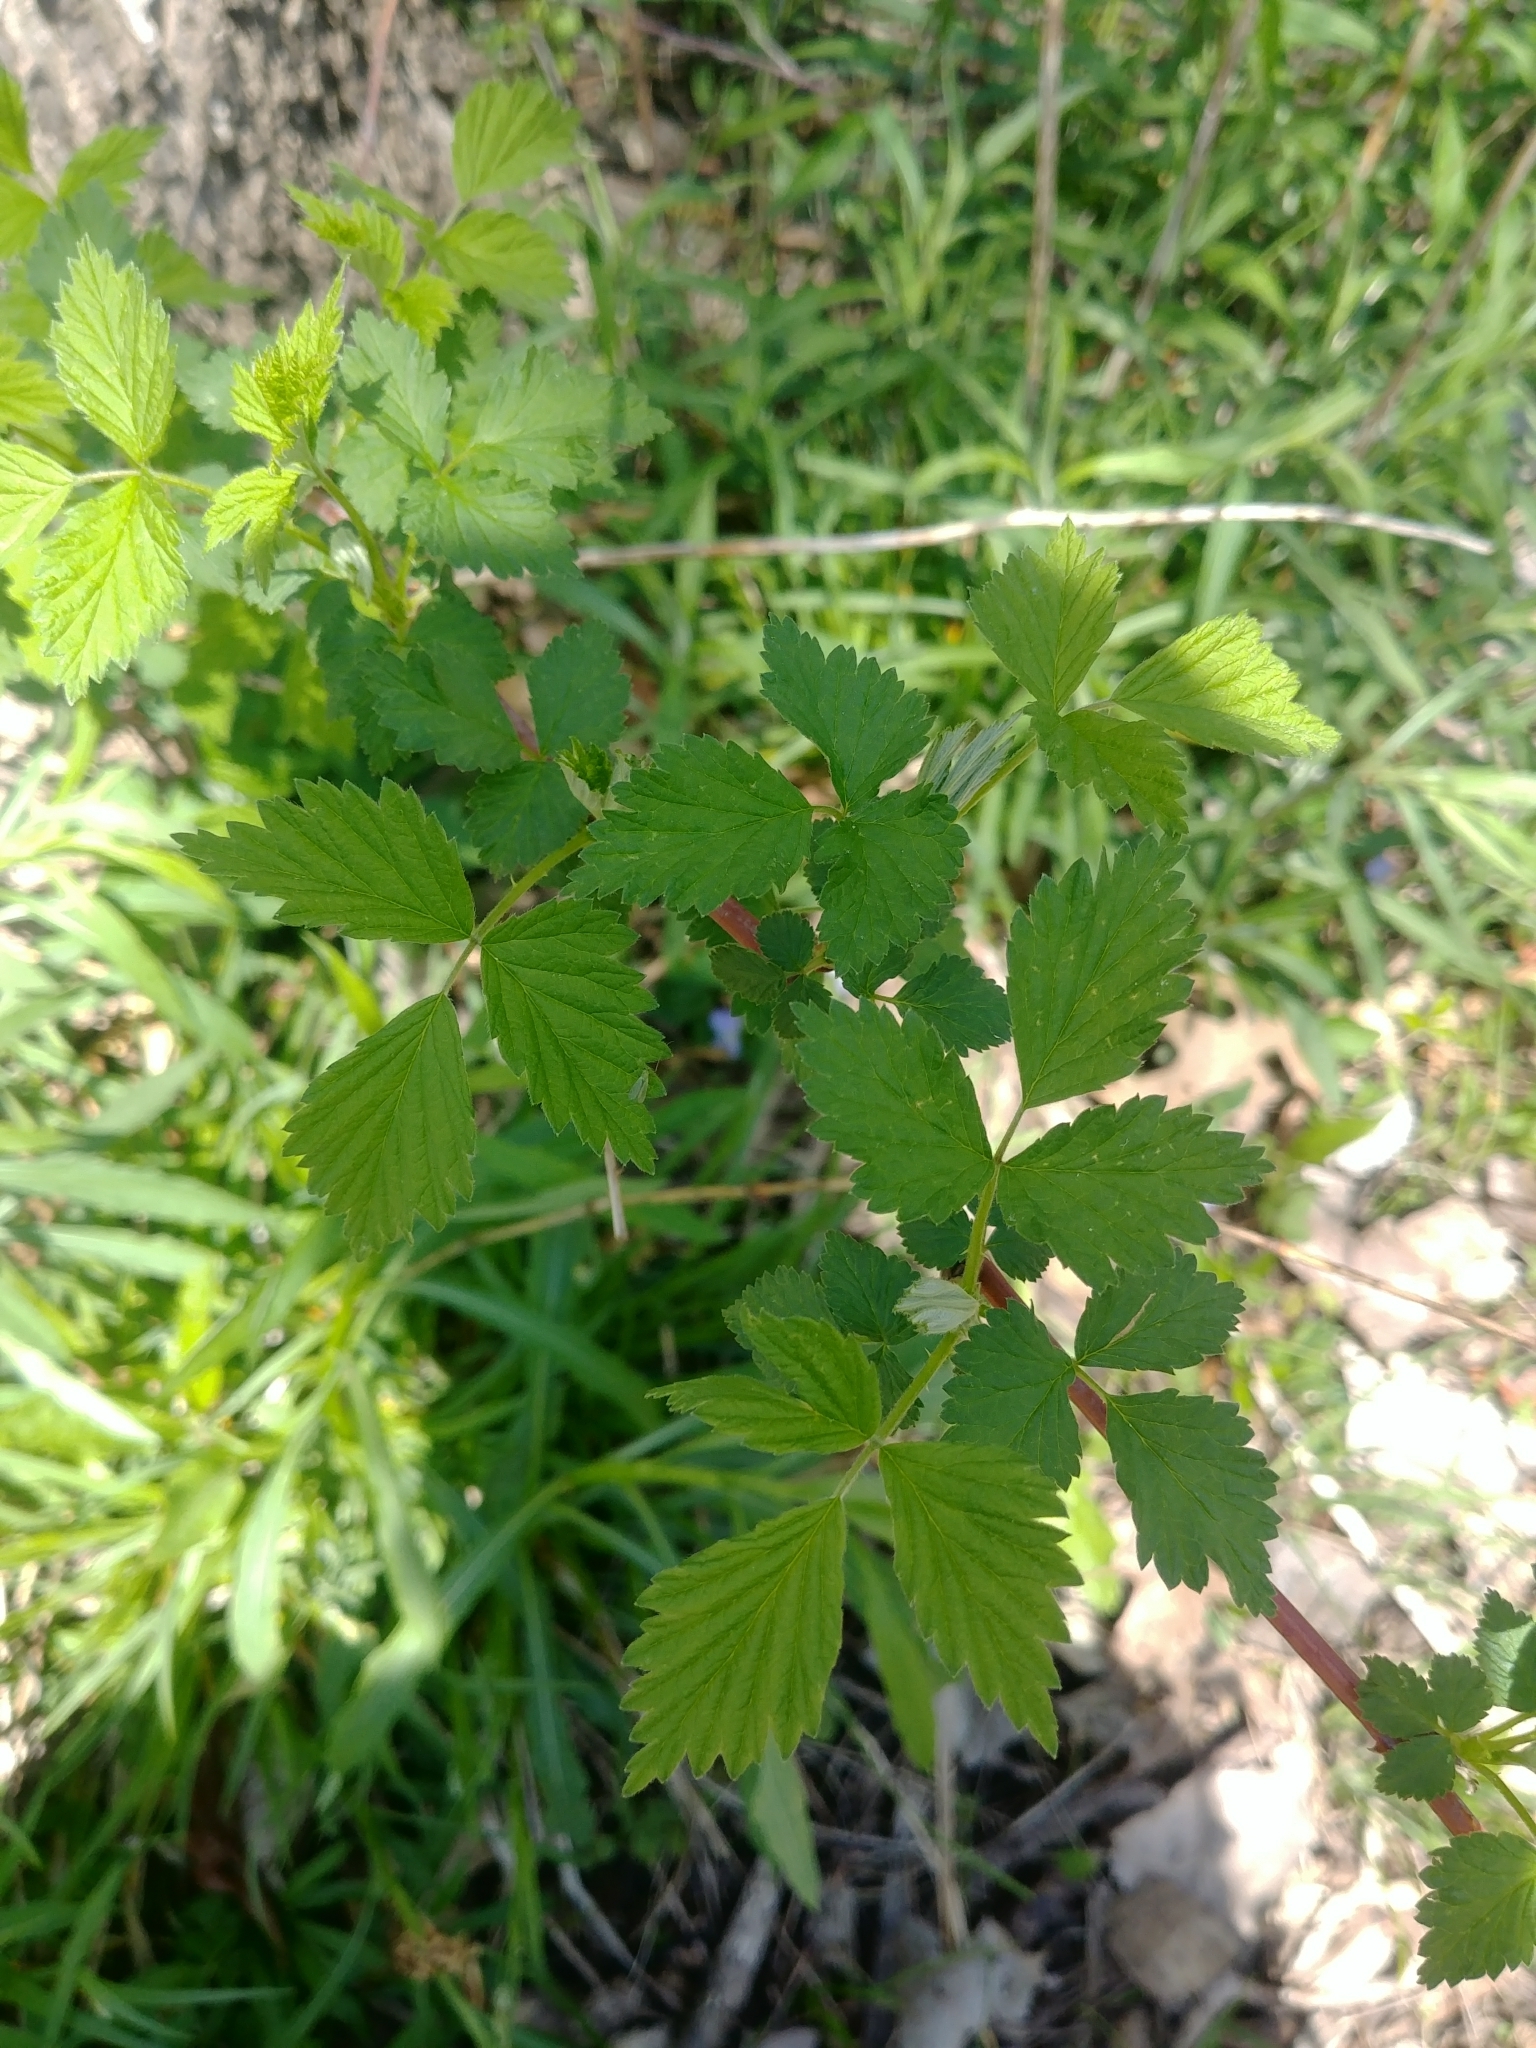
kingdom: Plantae
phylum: Tracheophyta
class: Magnoliopsida
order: Rosales
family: Rosaceae
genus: Rubus
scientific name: Rubus occidentalis
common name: Black raspberry
